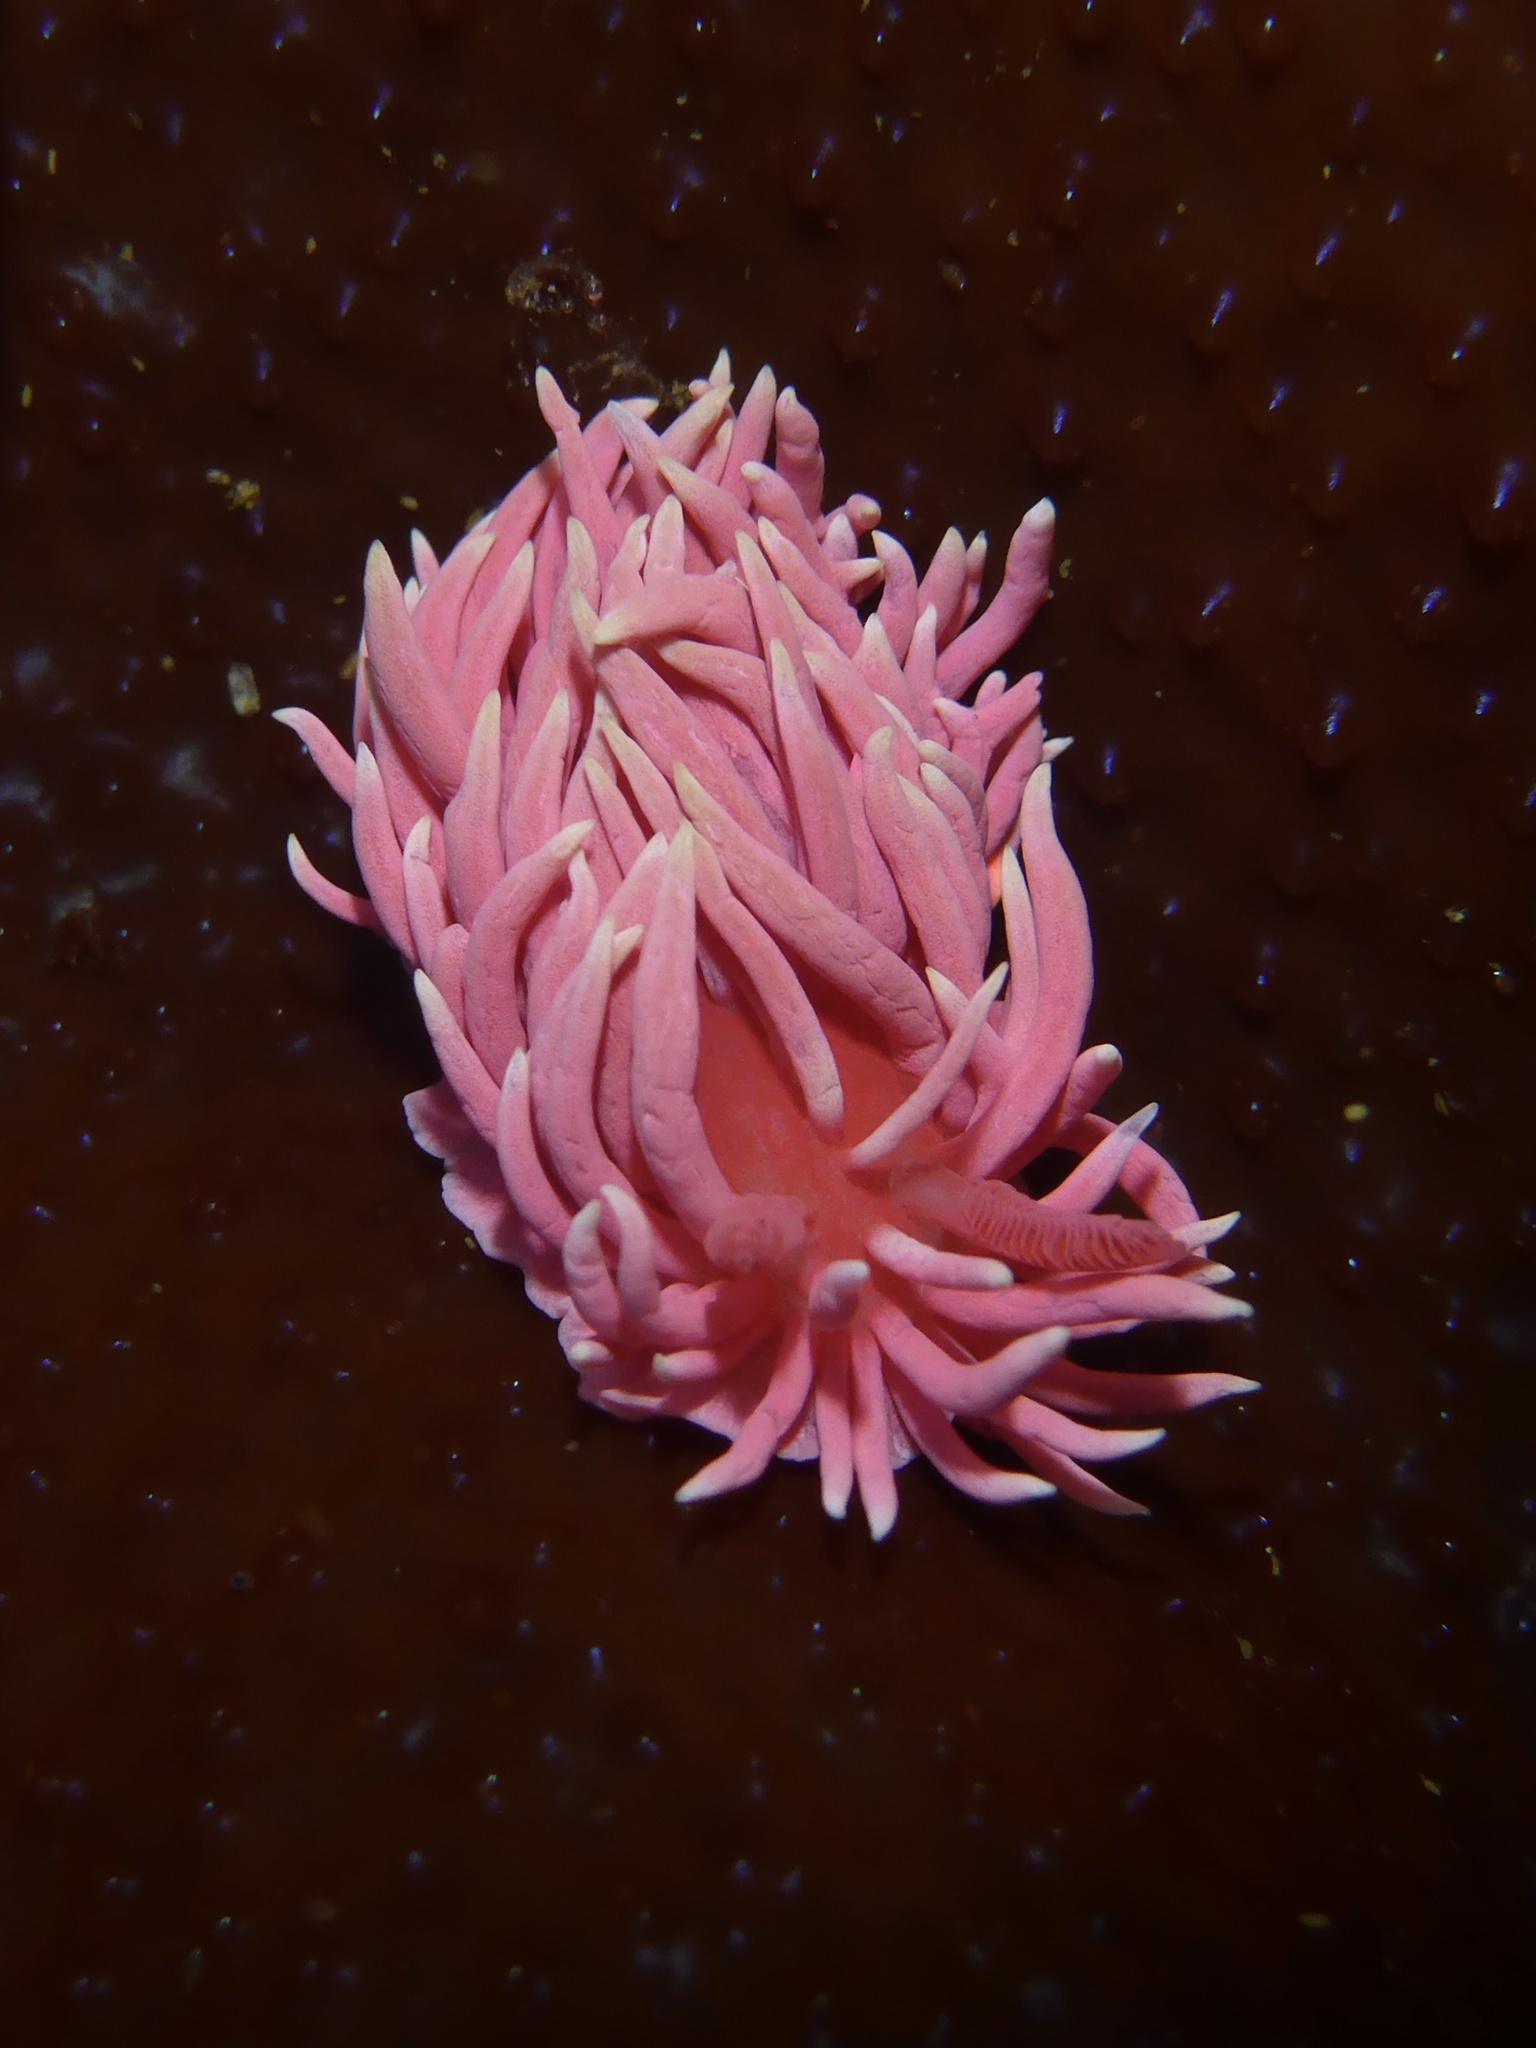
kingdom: Animalia
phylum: Mollusca
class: Gastropoda
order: Nudibranchia
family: Goniodorididae
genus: Okenia
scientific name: Okenia
